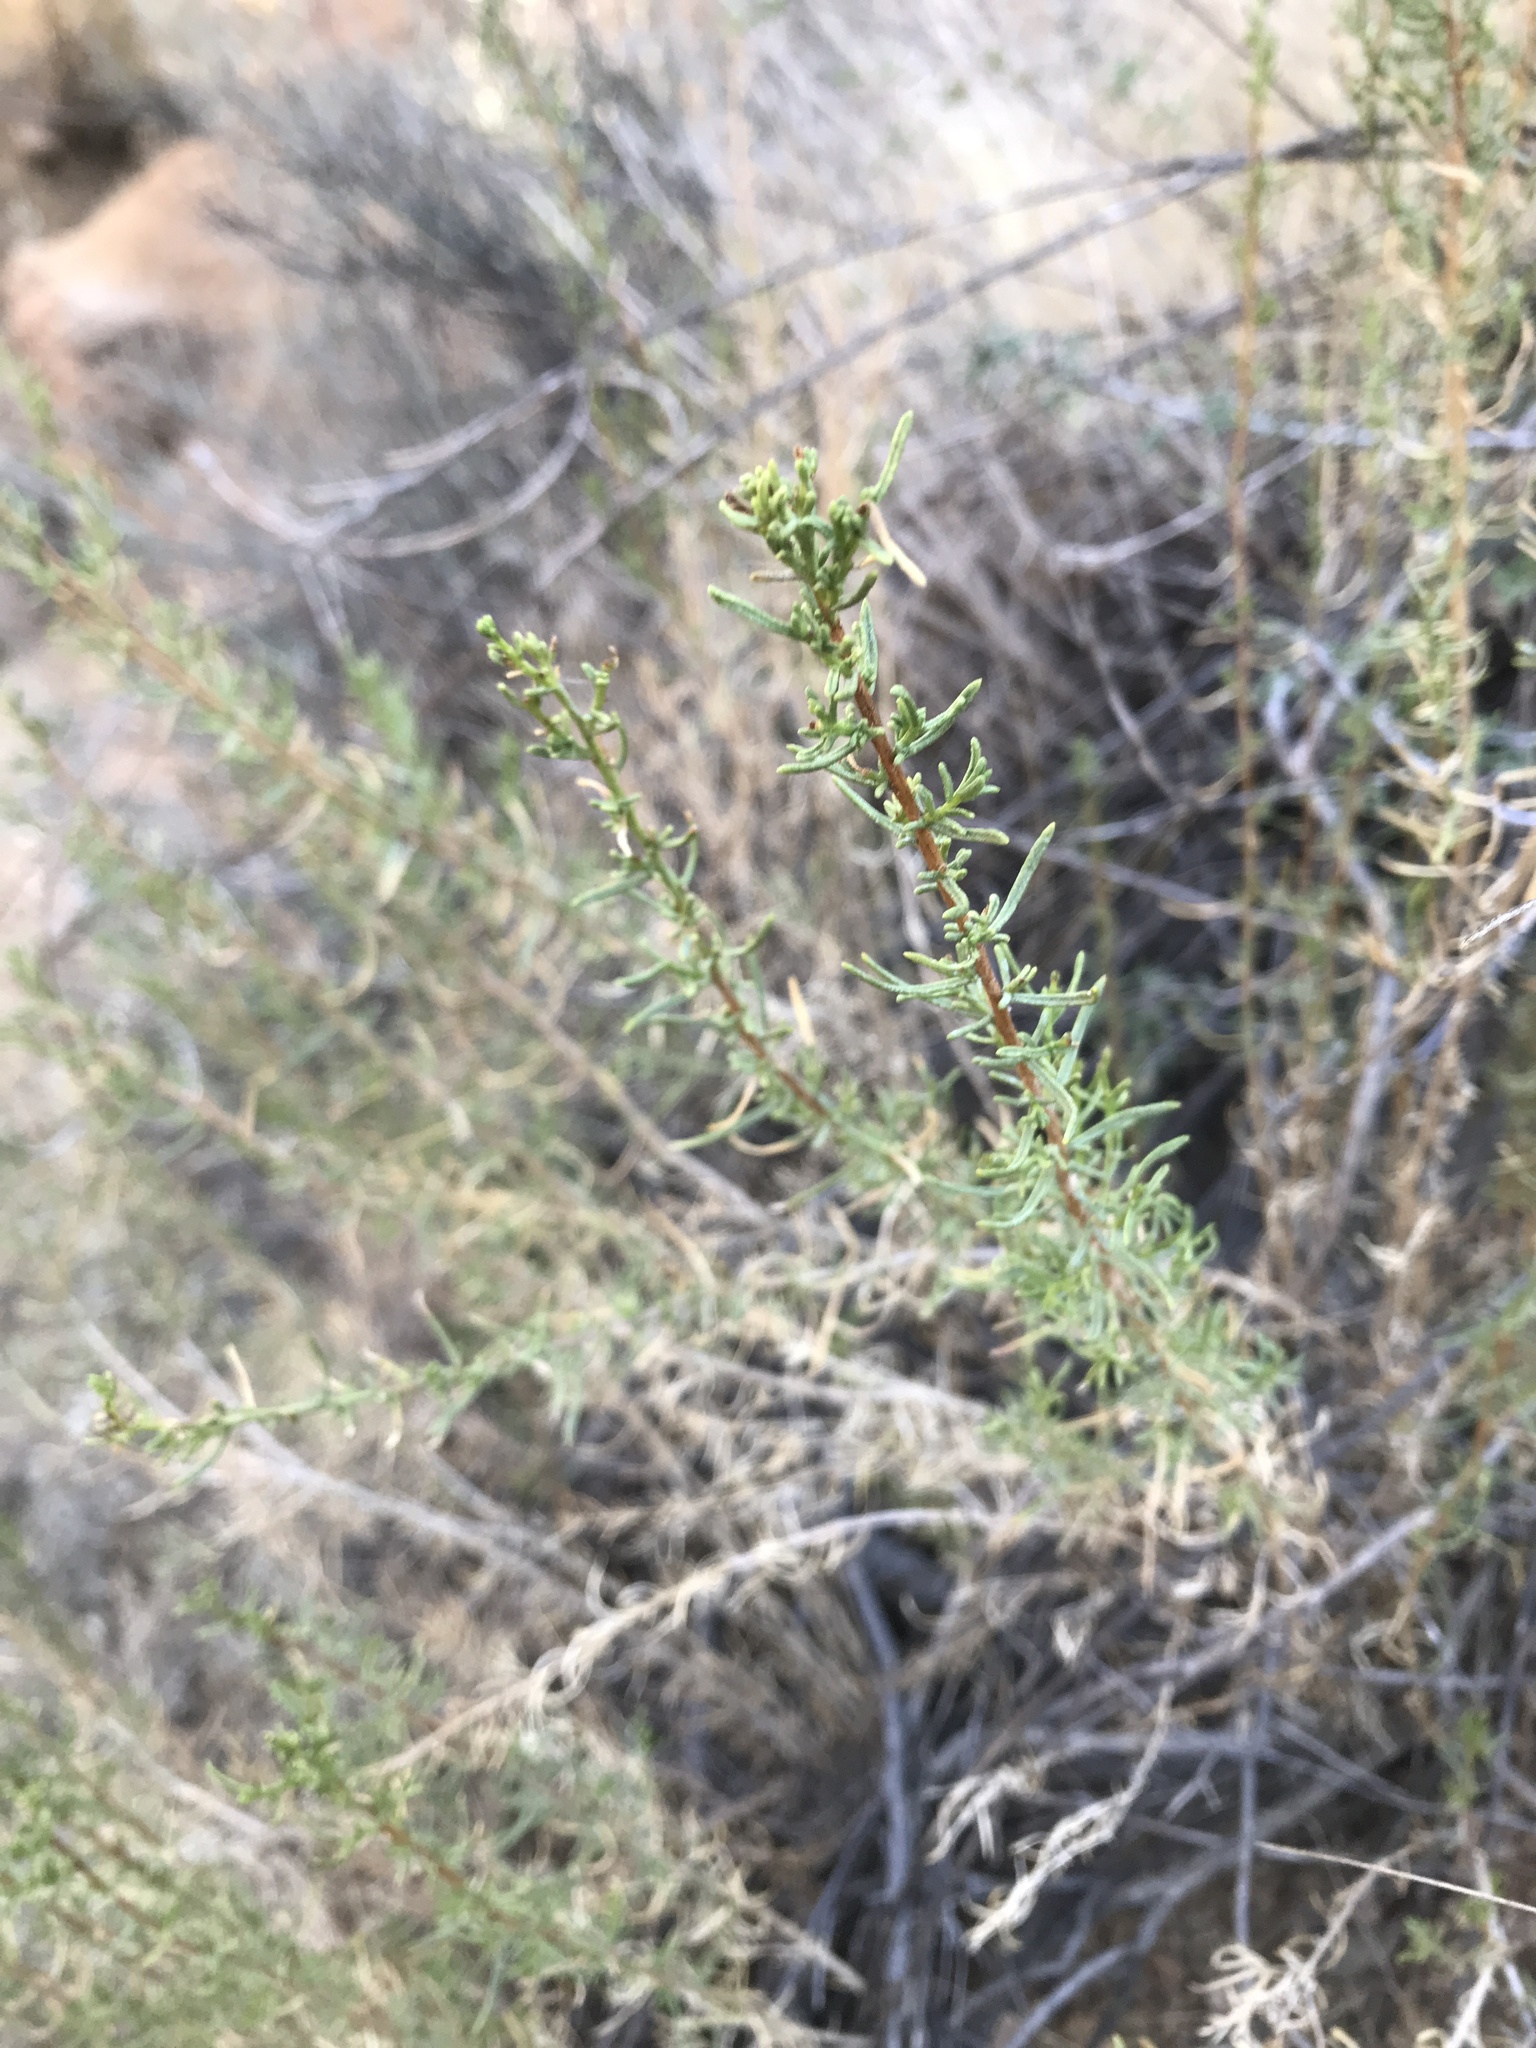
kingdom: Plantae
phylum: Tracheophyta
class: Magnoliopsida
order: Asterales
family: Asteraceae
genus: Ericameria
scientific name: Ericameria laricifolia
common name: Turpentine-bush
